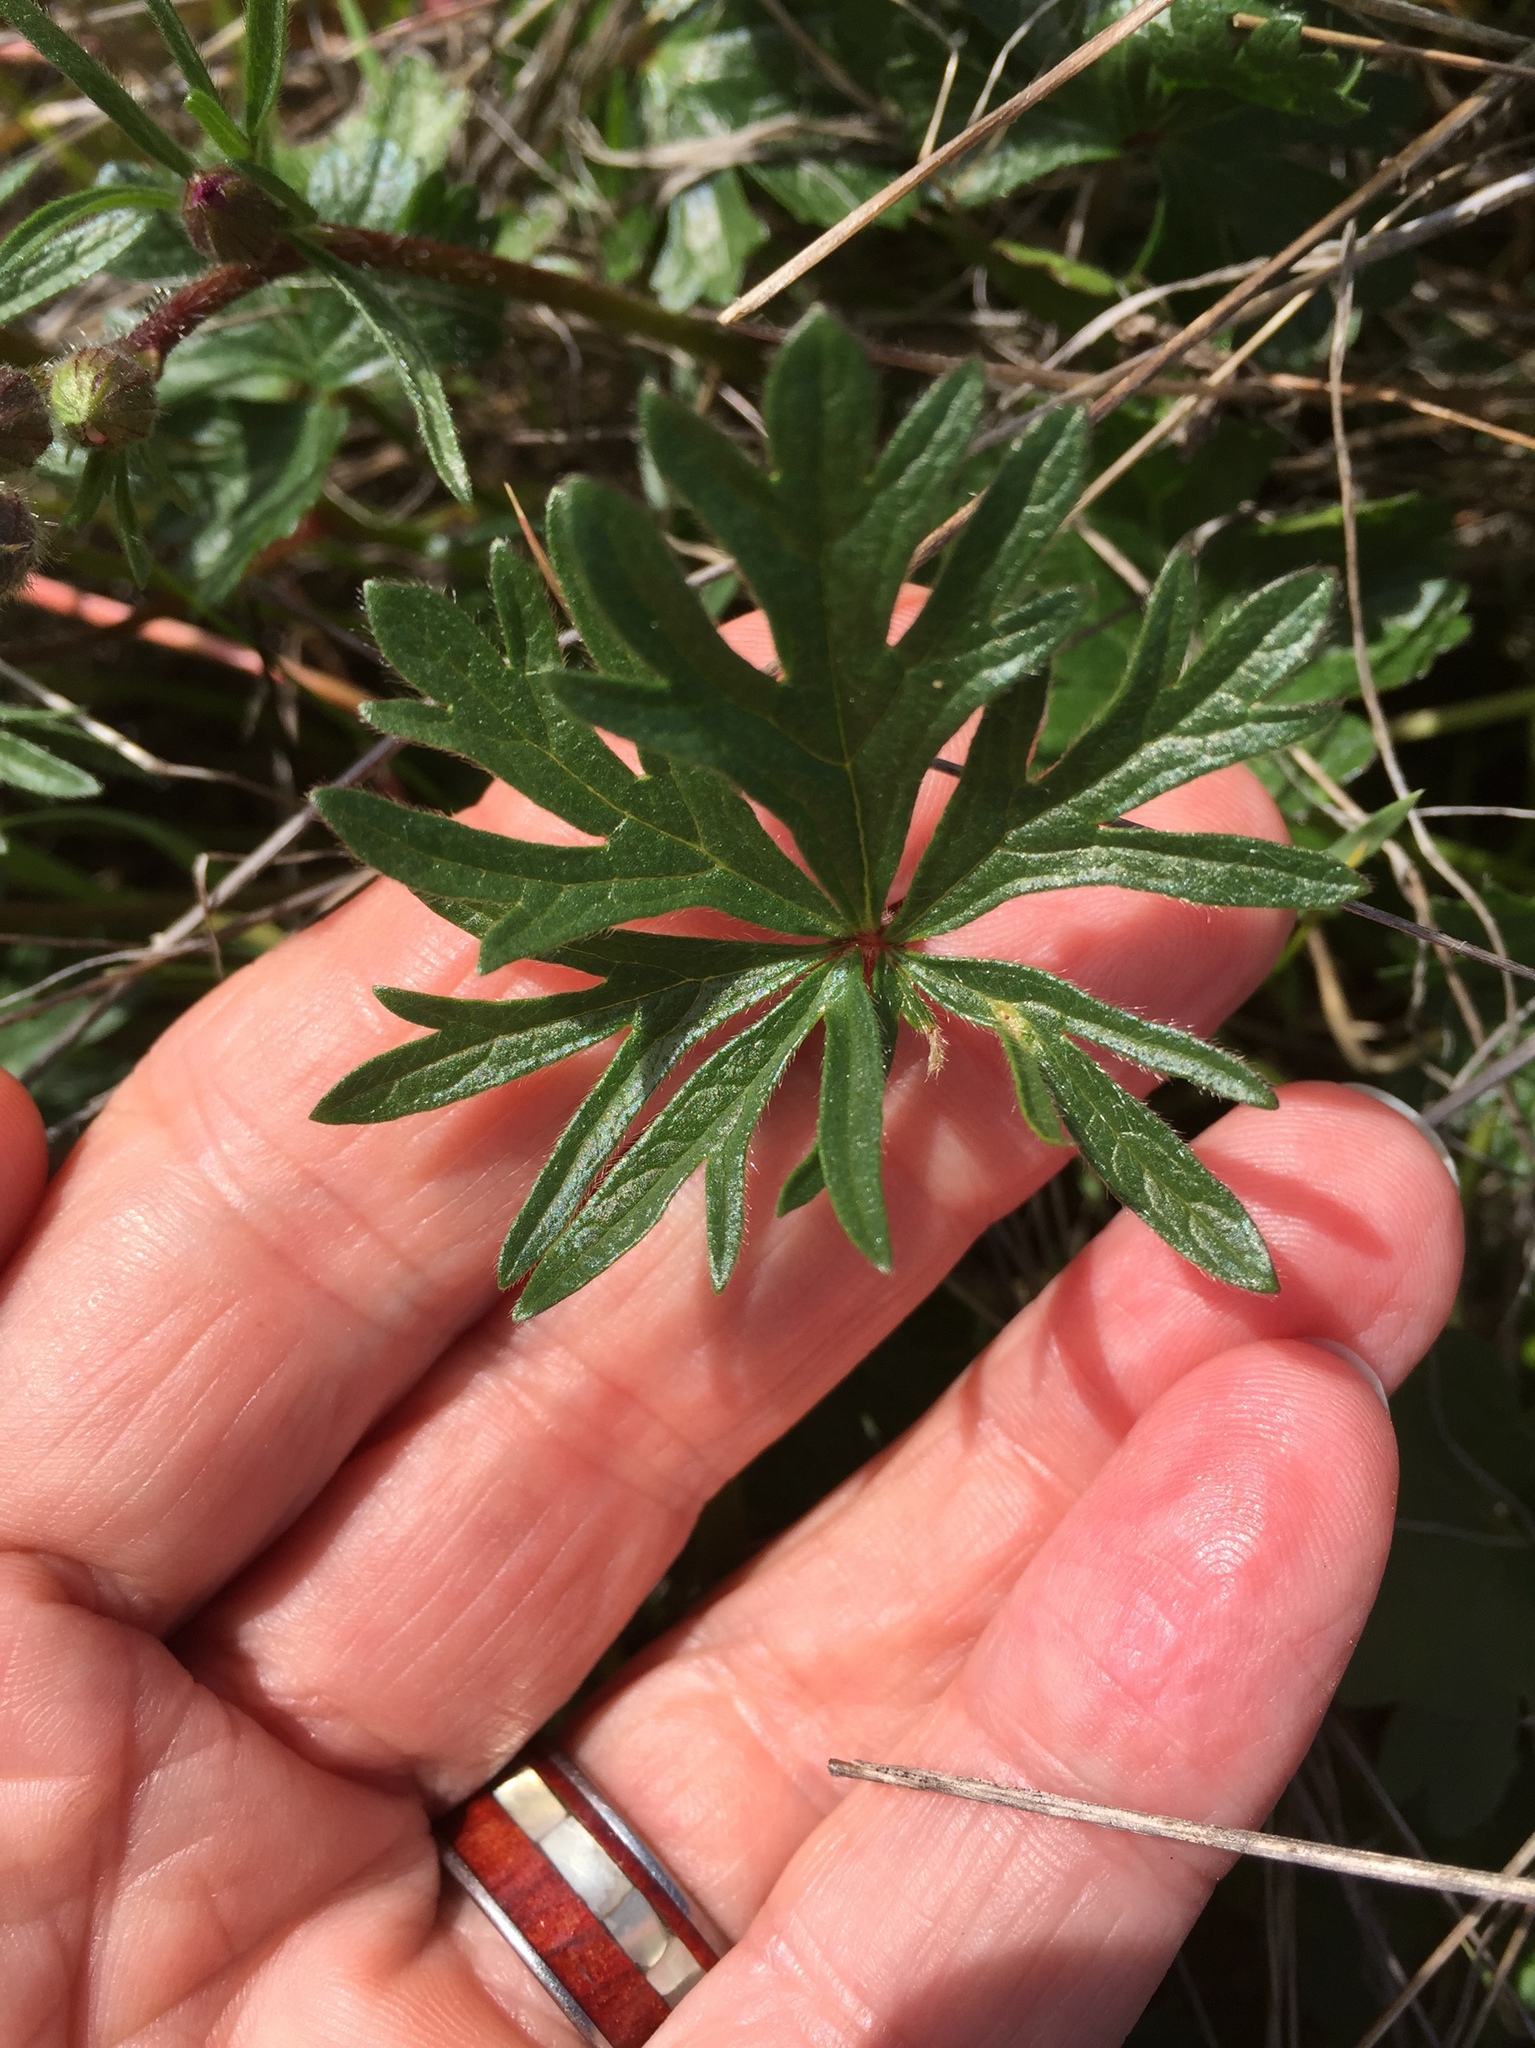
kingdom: Plantae
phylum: Tracheophyta
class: Magnoliopsida
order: Malvales
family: Malvaceae
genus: Sidalcea
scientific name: Sidalcea malviflora
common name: Greek mallow
